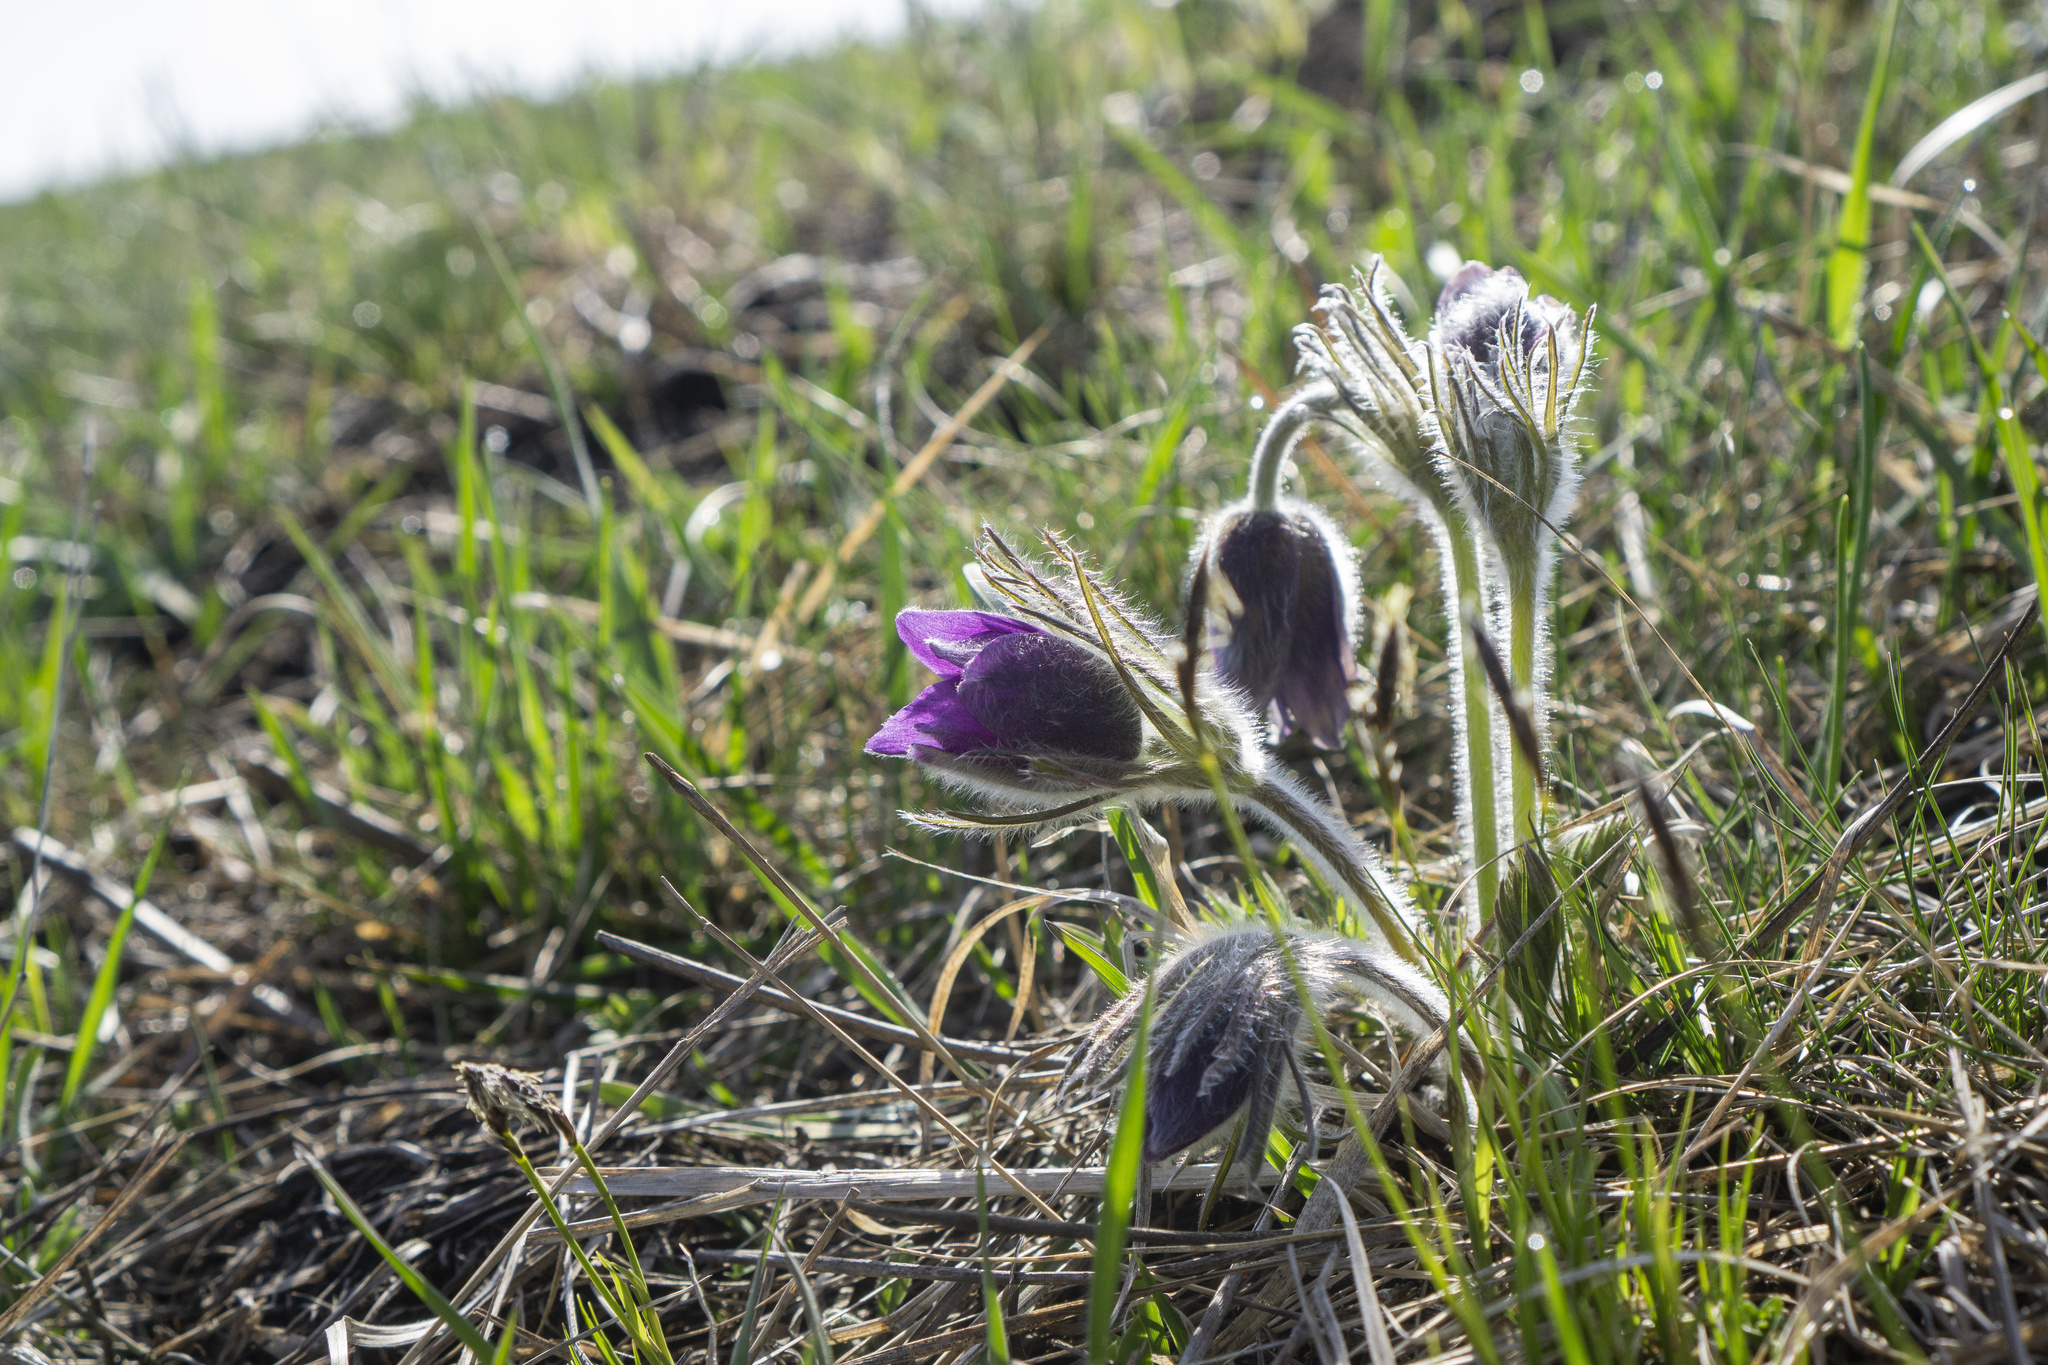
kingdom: Plantae
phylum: Tracheophyta
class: Magnoliopsida
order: Ranunculales
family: Ranunculaceae
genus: Pulsatilla
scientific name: Pulsatilla montana
